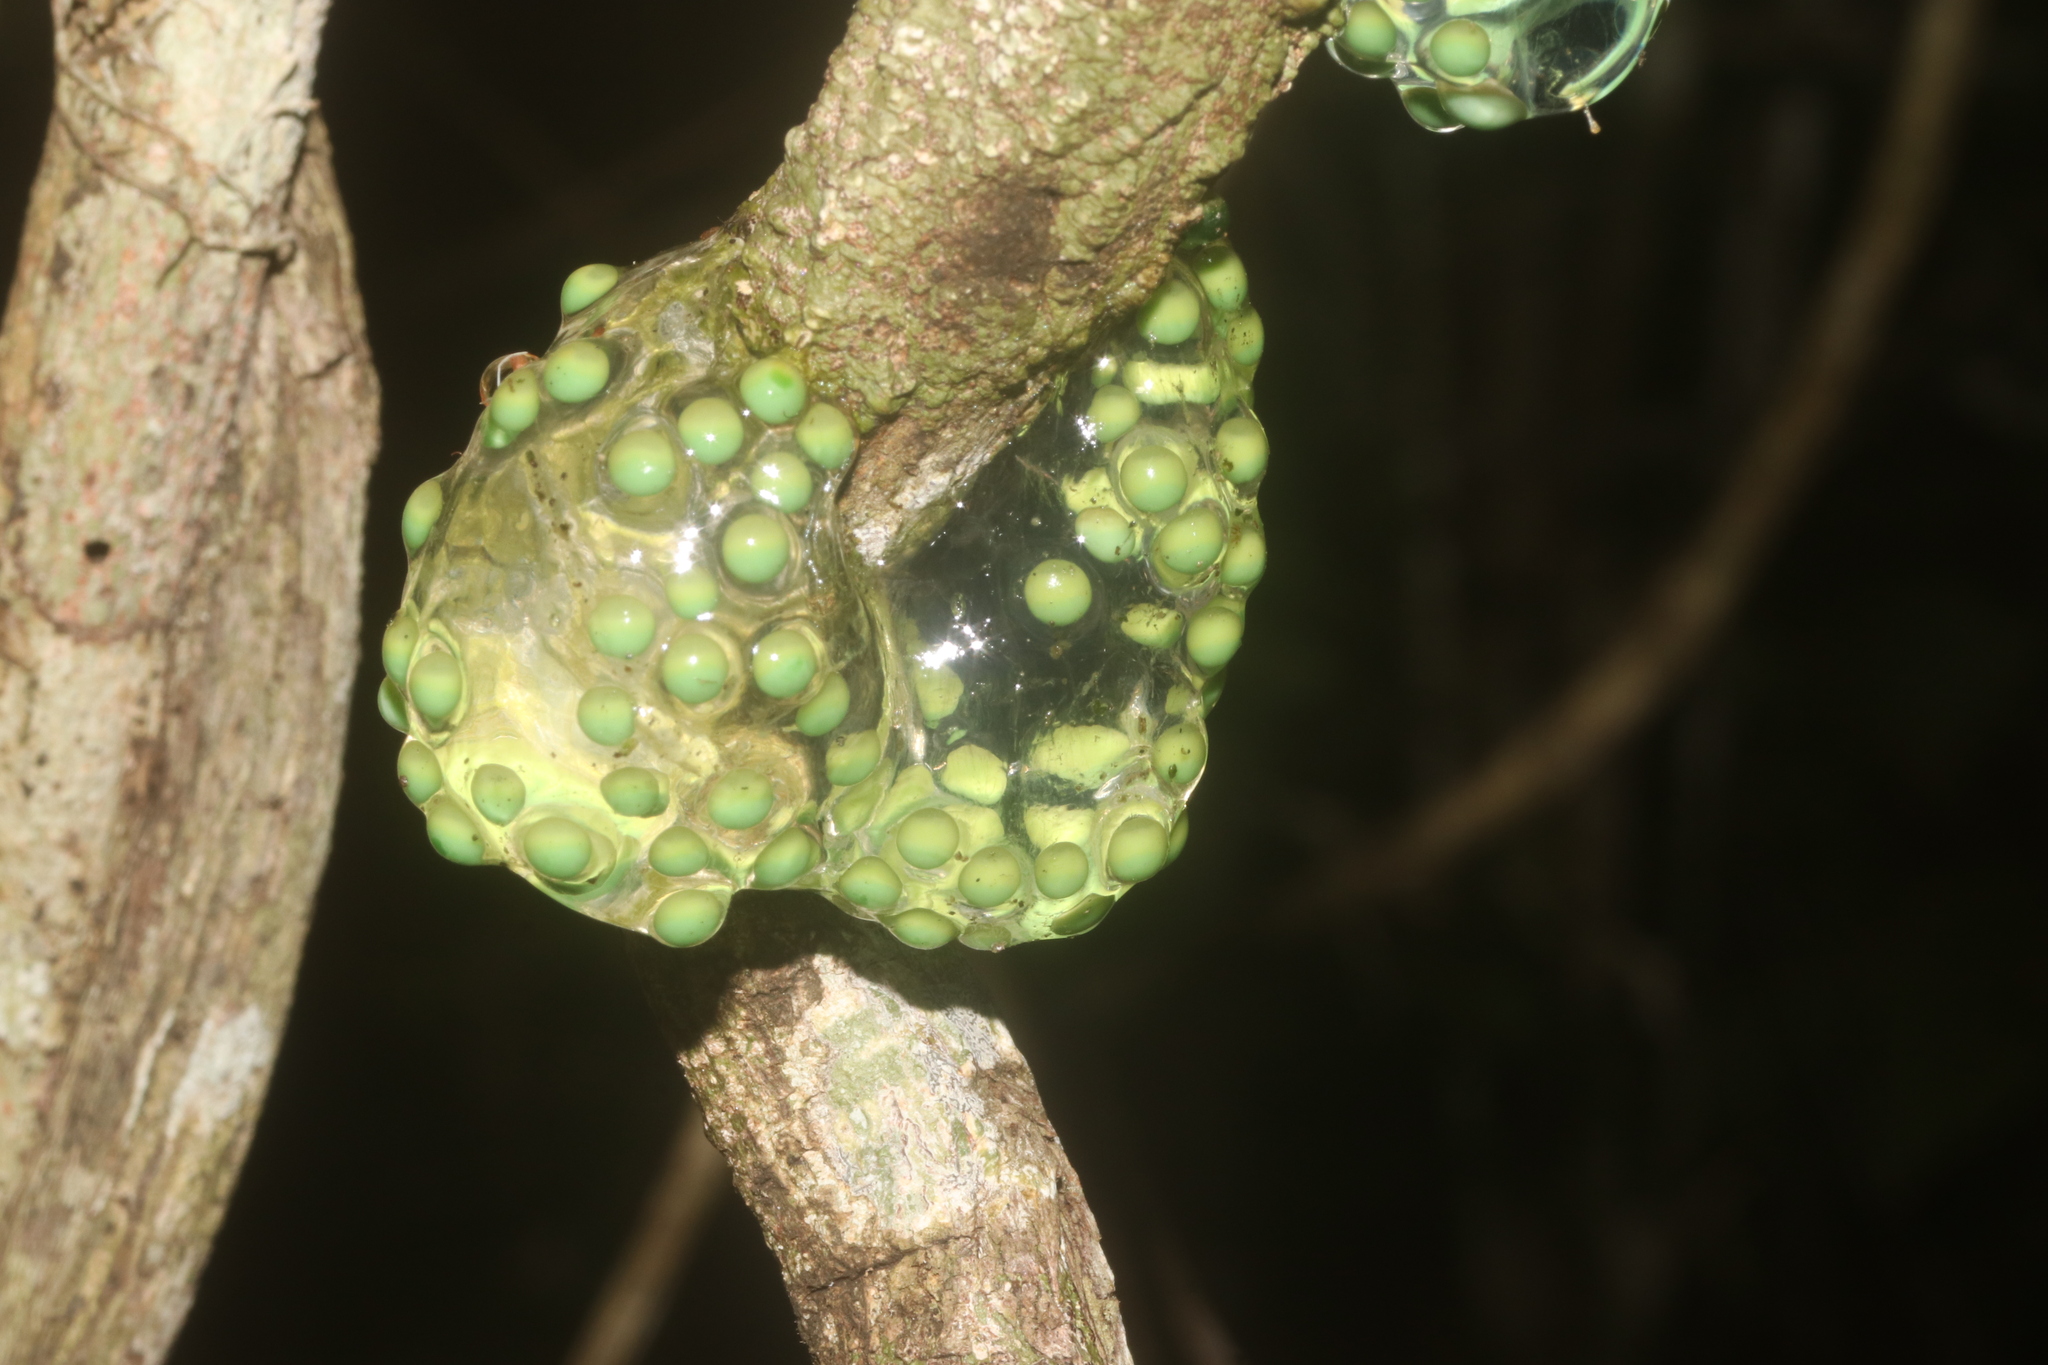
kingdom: Animalia
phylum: Chordata
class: Amphibia
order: Anura
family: Phyllomedusidae
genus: Agalychnis
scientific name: Agalychnis
